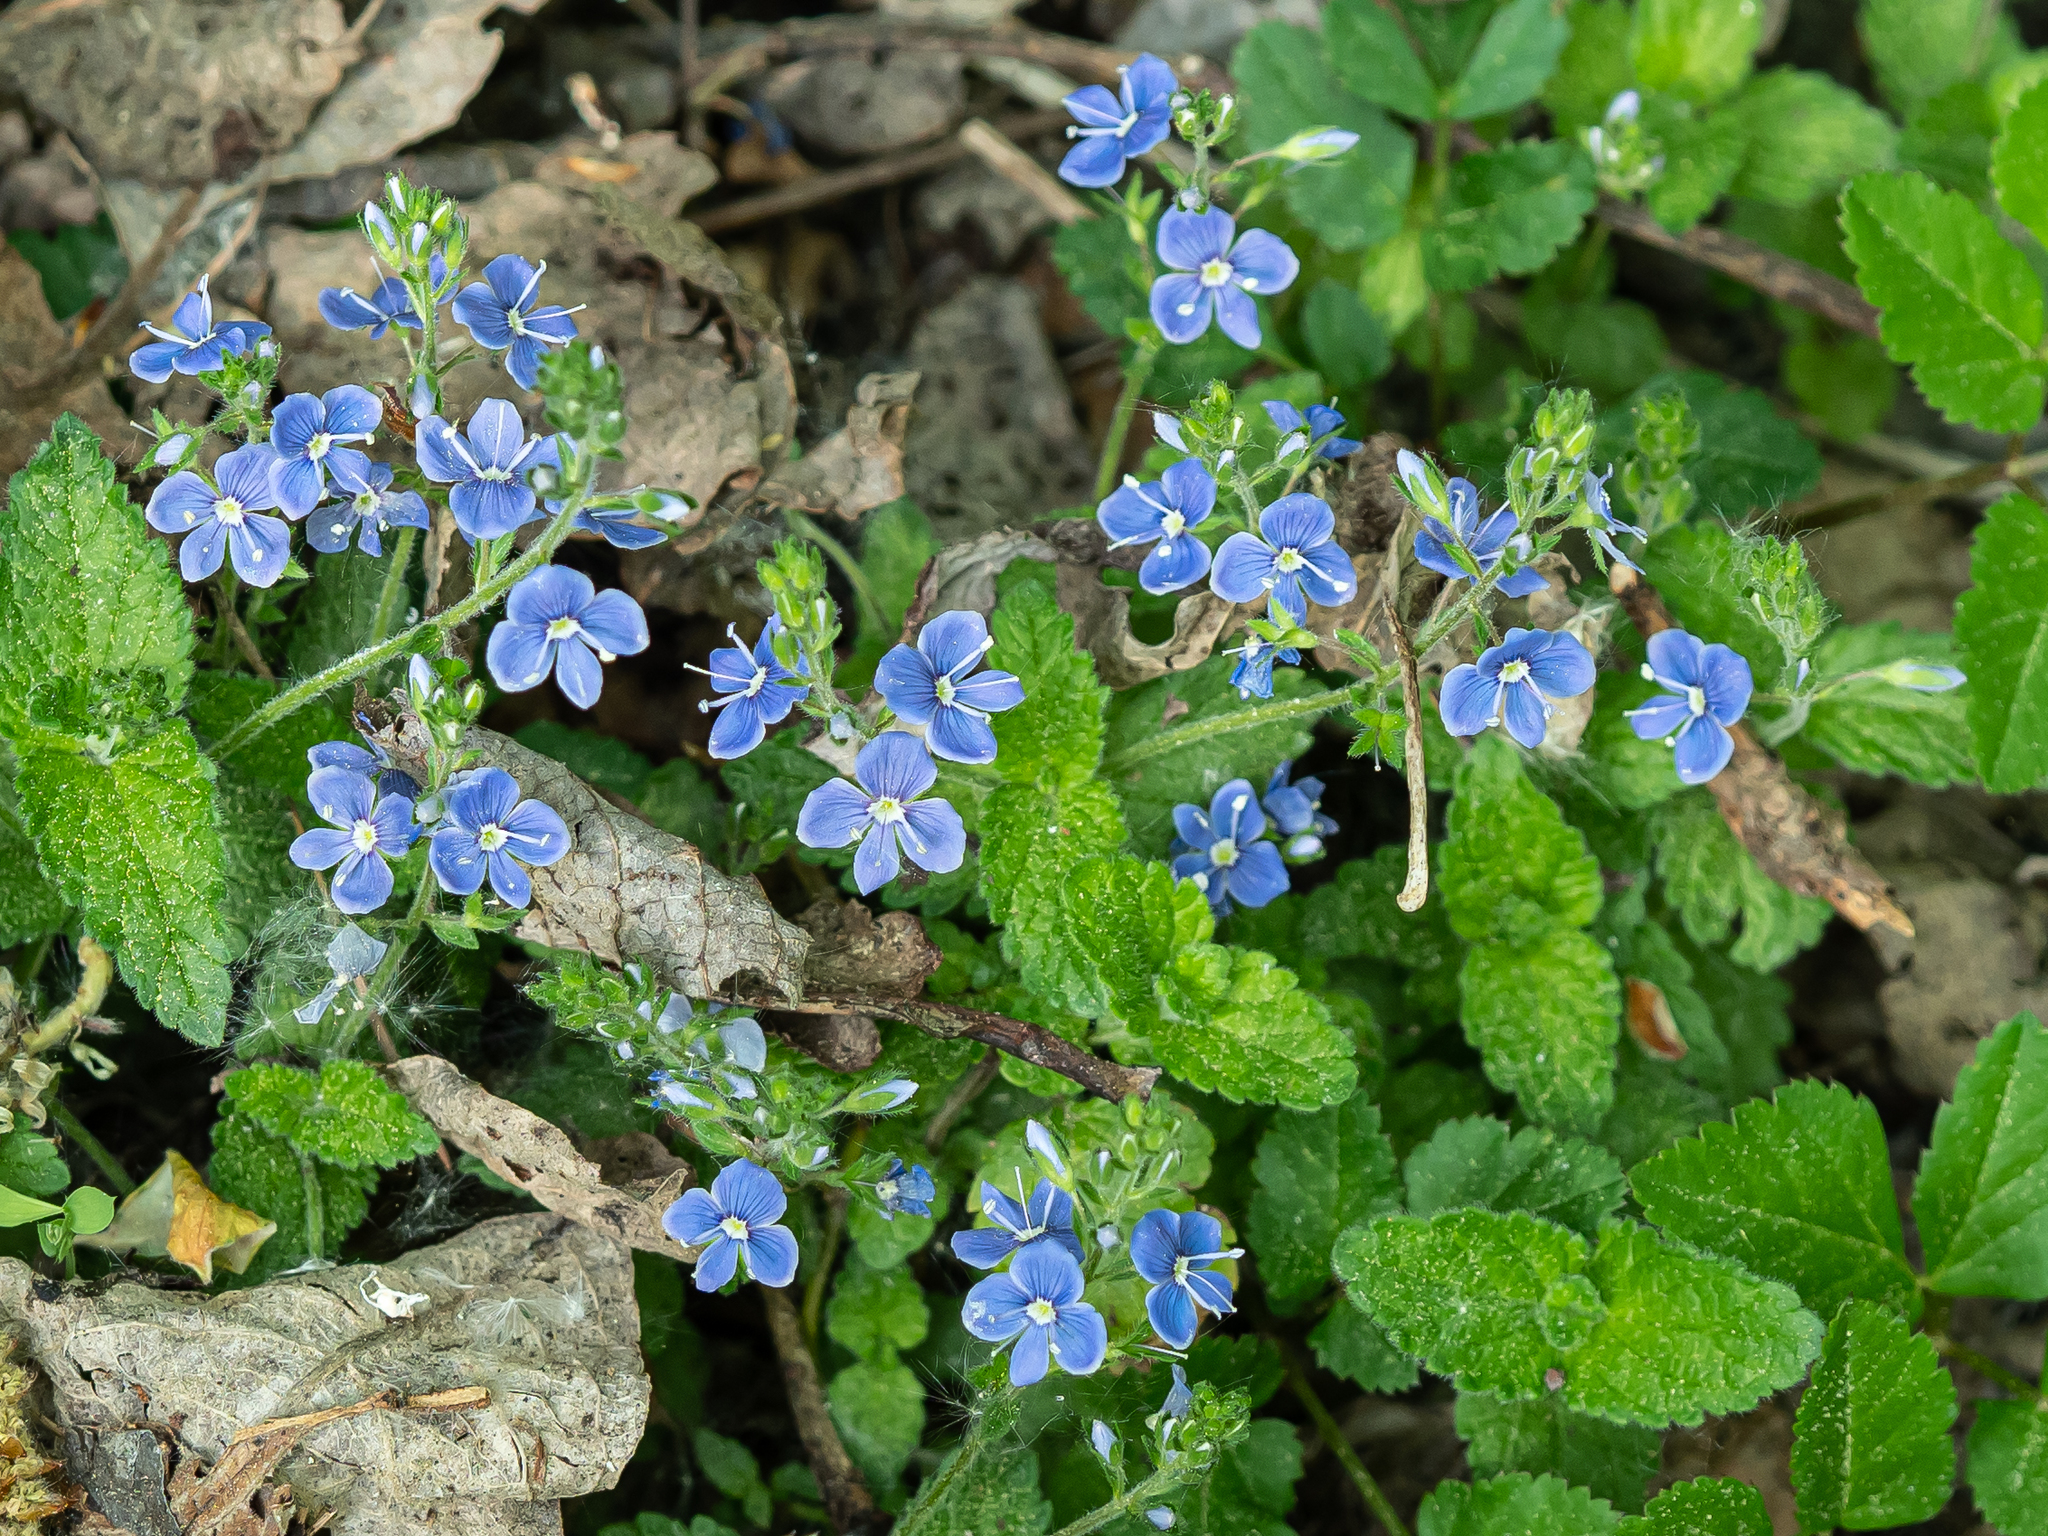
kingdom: Plantae
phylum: Tracheophyta
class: Magnoliopsida
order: Lamiales
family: Plantaginaceae
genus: Veronica
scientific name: Veronica chamaedrys
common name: Germander speedwell
